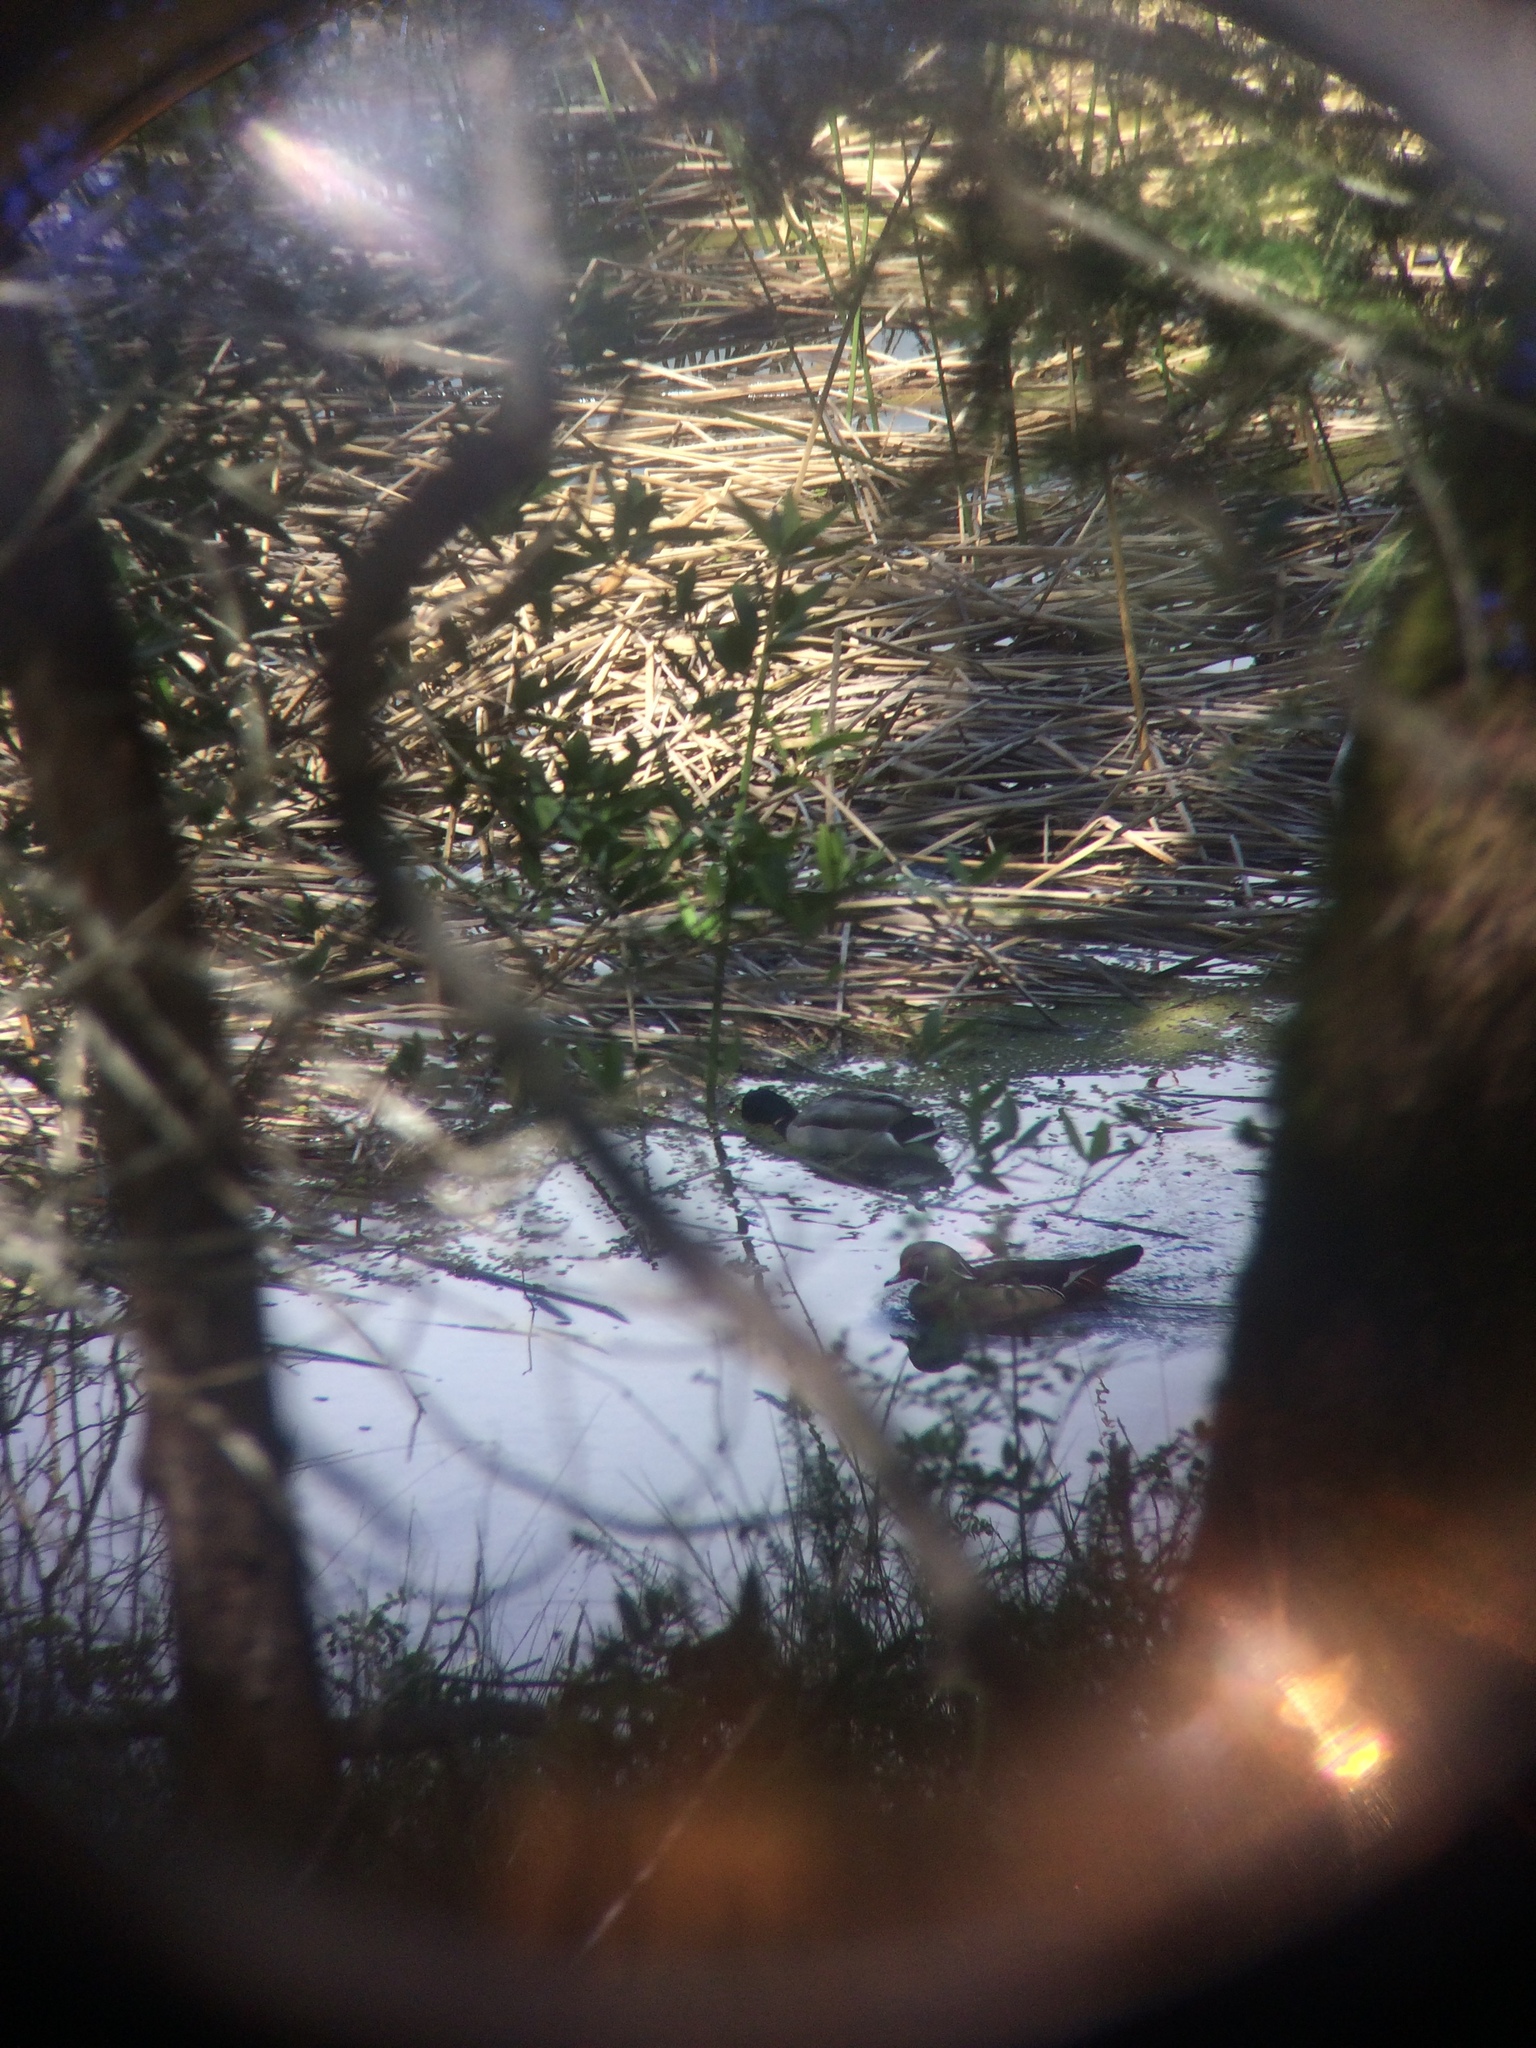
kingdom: Animalia
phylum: Chordata
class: Aves
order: Anseriformes
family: Anatidae
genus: Aix
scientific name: Aix sponsa
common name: Wood duck
